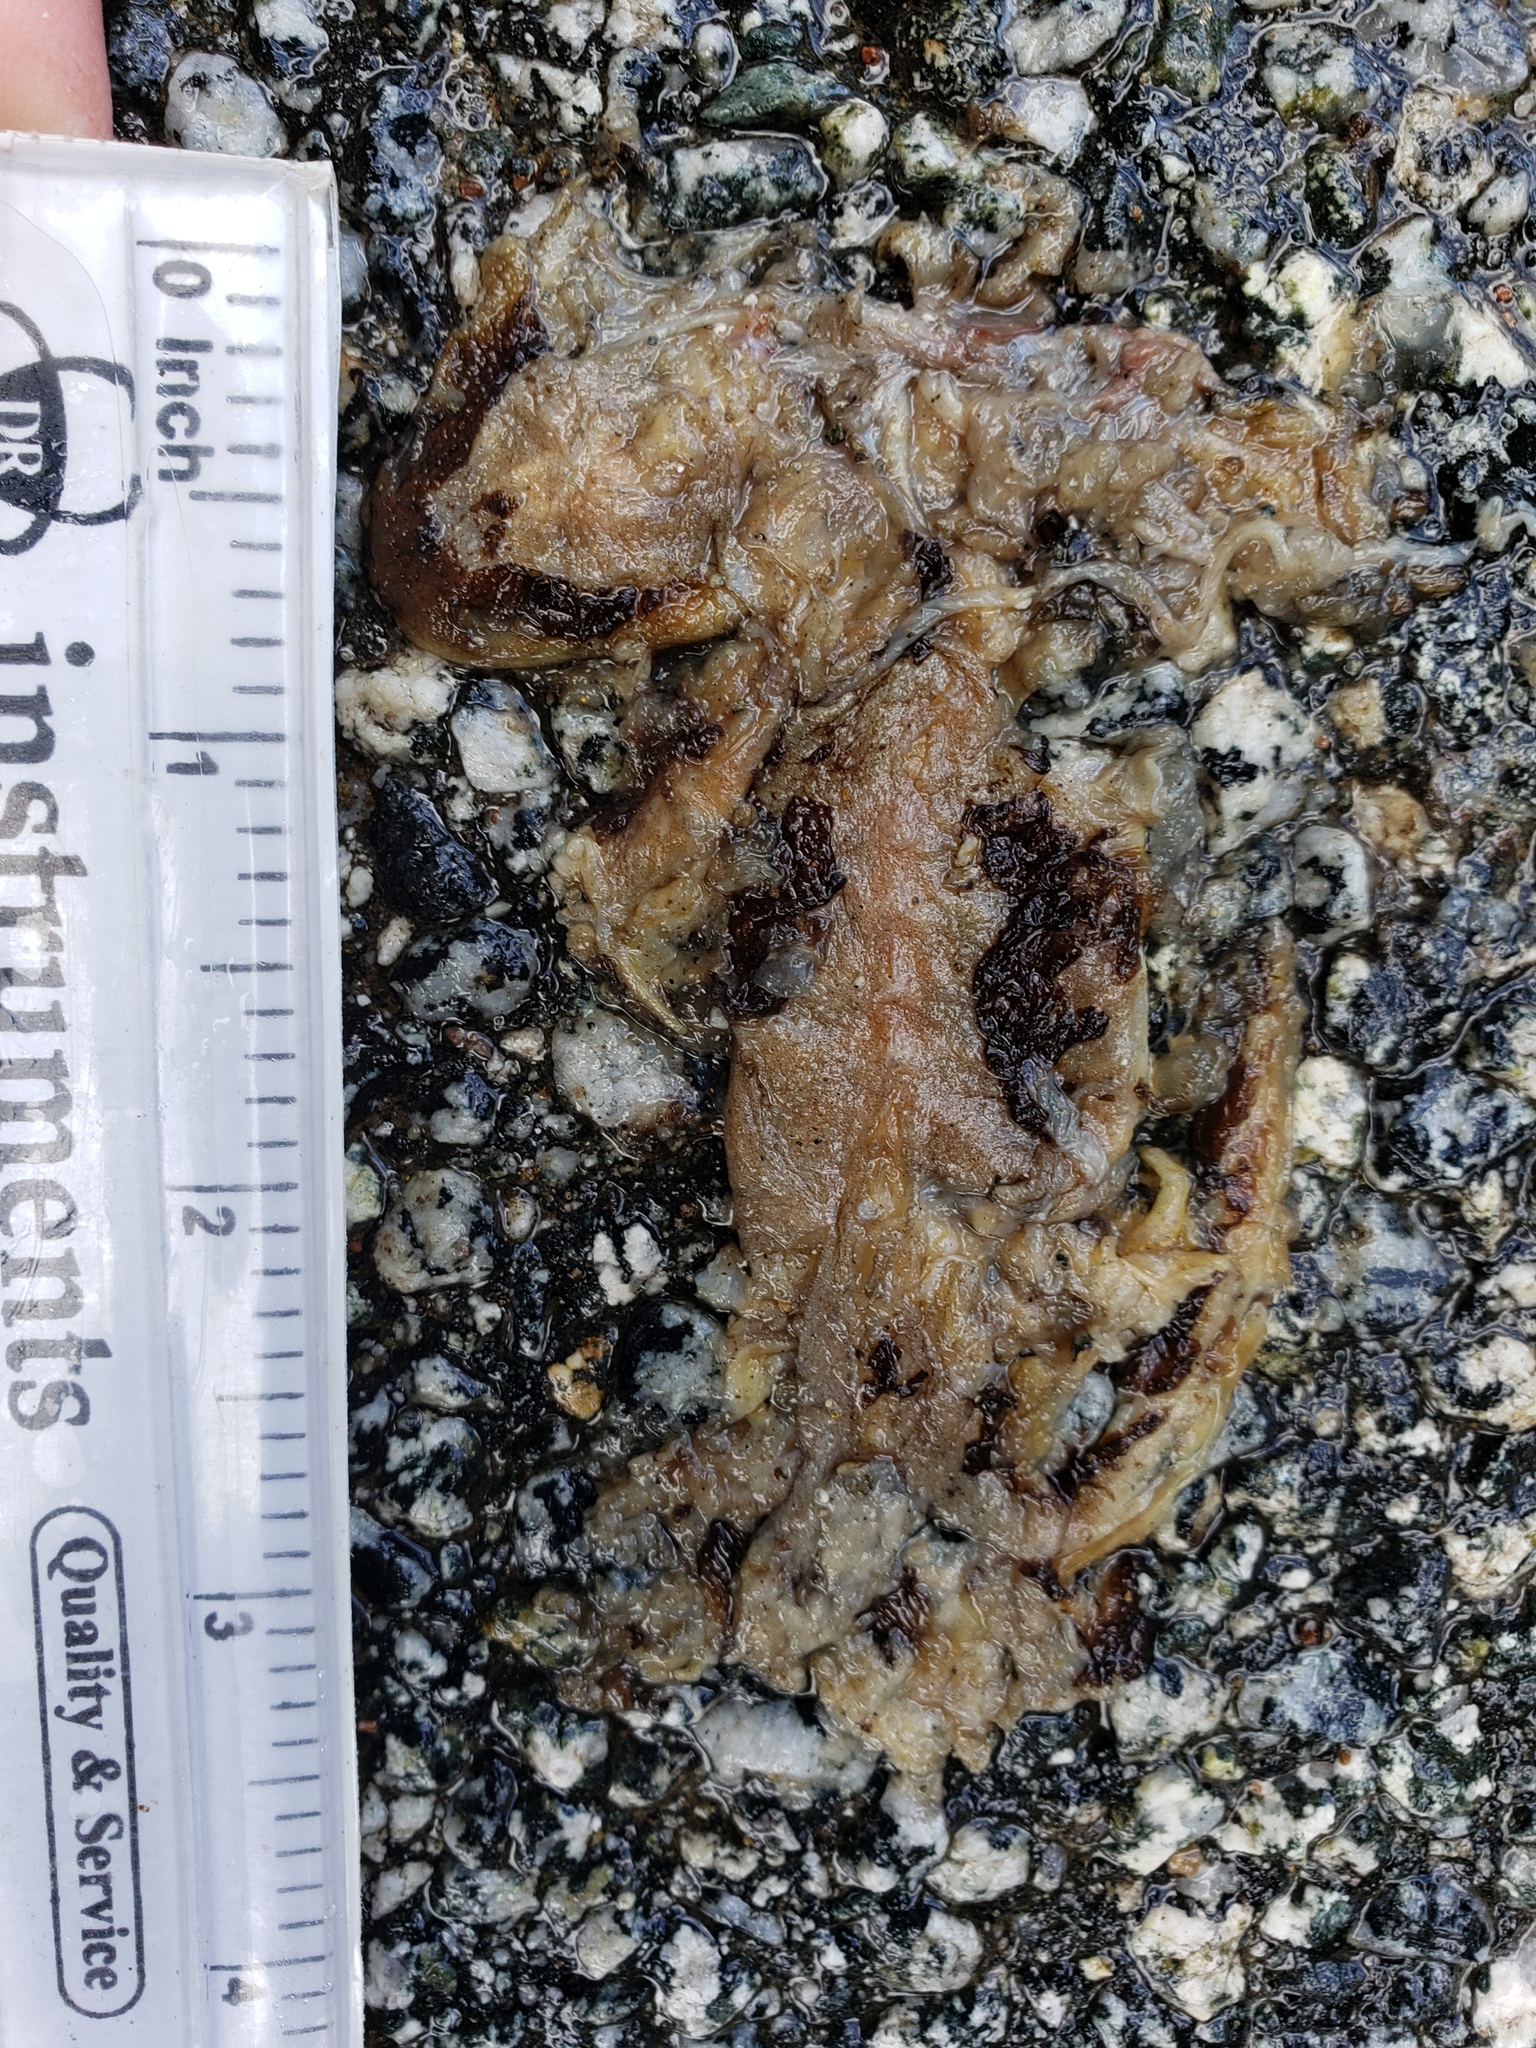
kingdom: Animalia
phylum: Chordata
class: Amphibia
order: Caudata
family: Salamandridae
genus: Taricha
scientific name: Taricha
